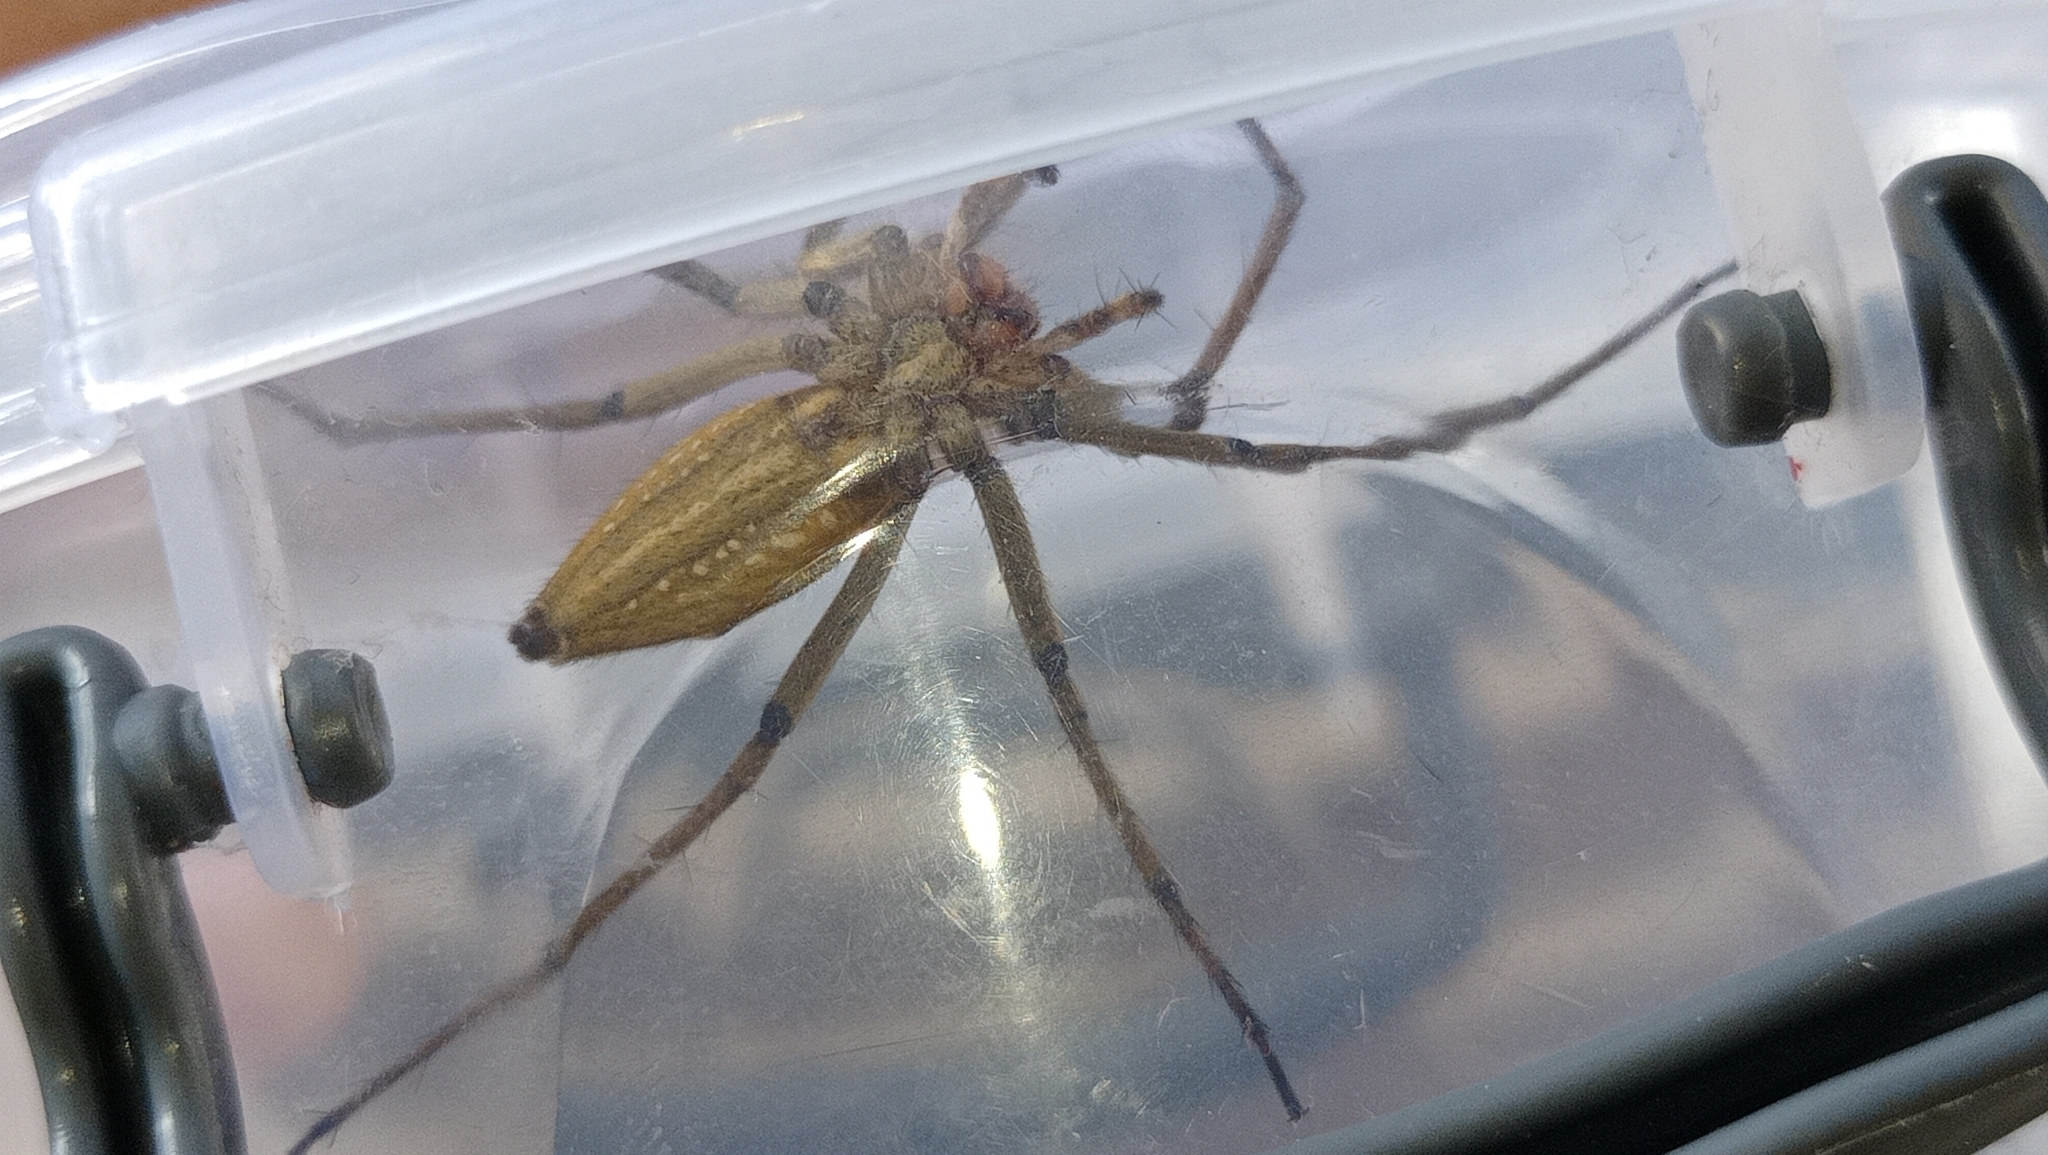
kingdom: Animalia
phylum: Arthropoda
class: Arachnida
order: Araneae
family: Pisauridae
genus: Pisaura
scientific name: Pisaura mirabilis
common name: Tent spider
